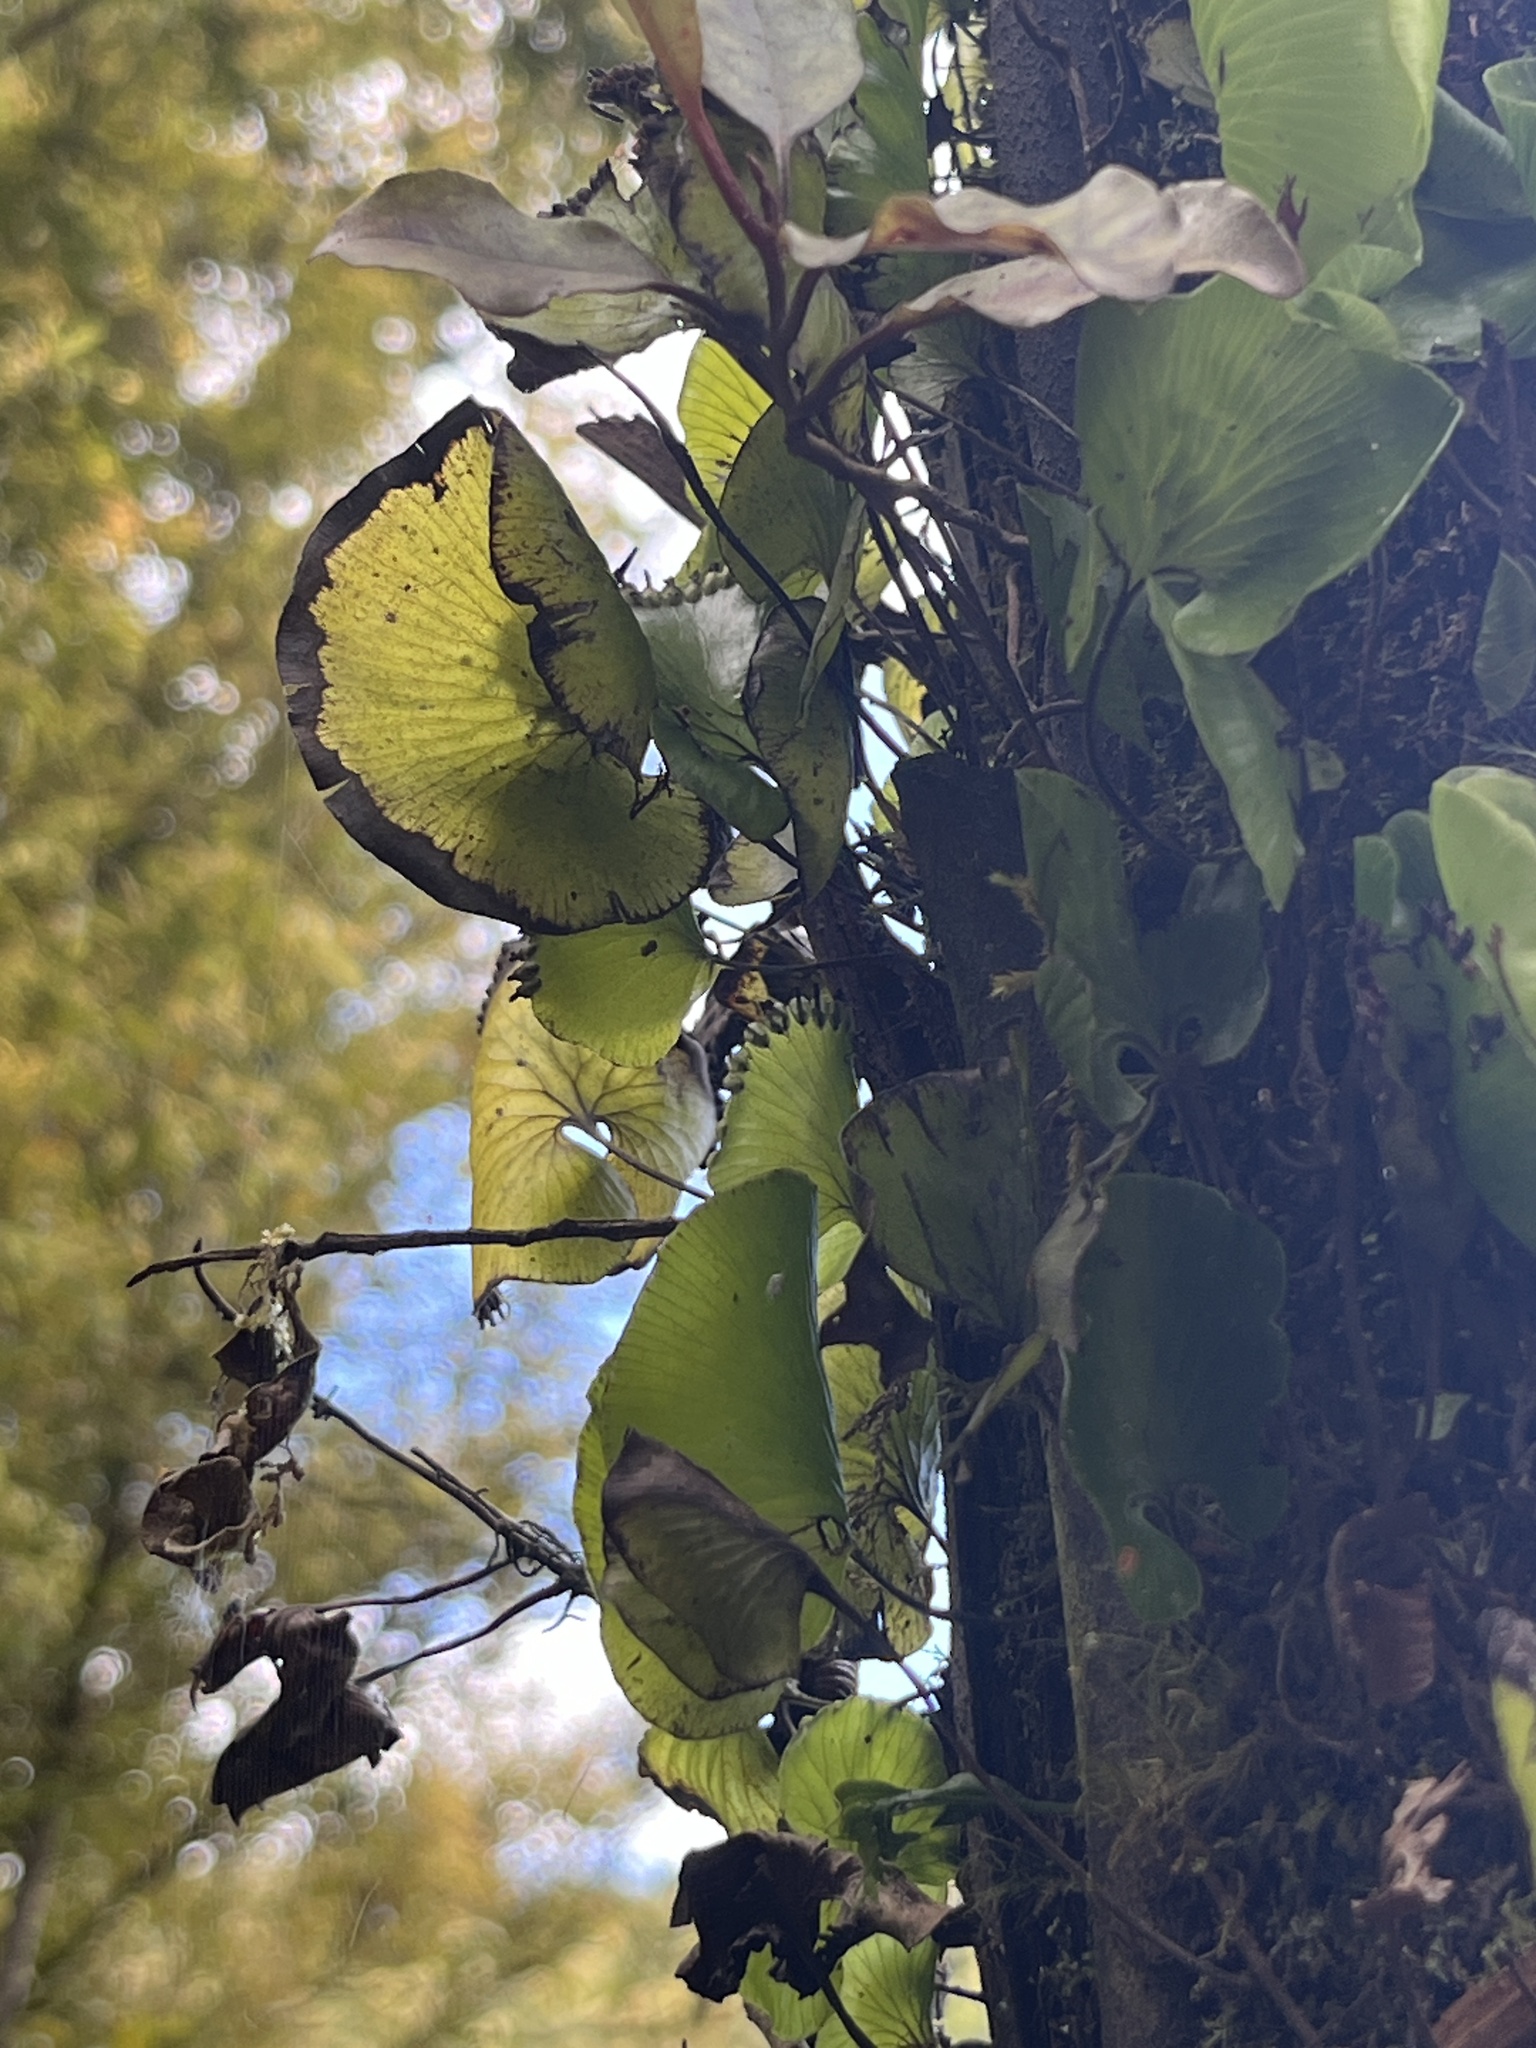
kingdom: Plantae
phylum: Tracheophyta
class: Polypodiopsida
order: Hymenophyllales
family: Hymenophyllaceae
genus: Hymenophyllum
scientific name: Hymenophyllum nephrophyllum
